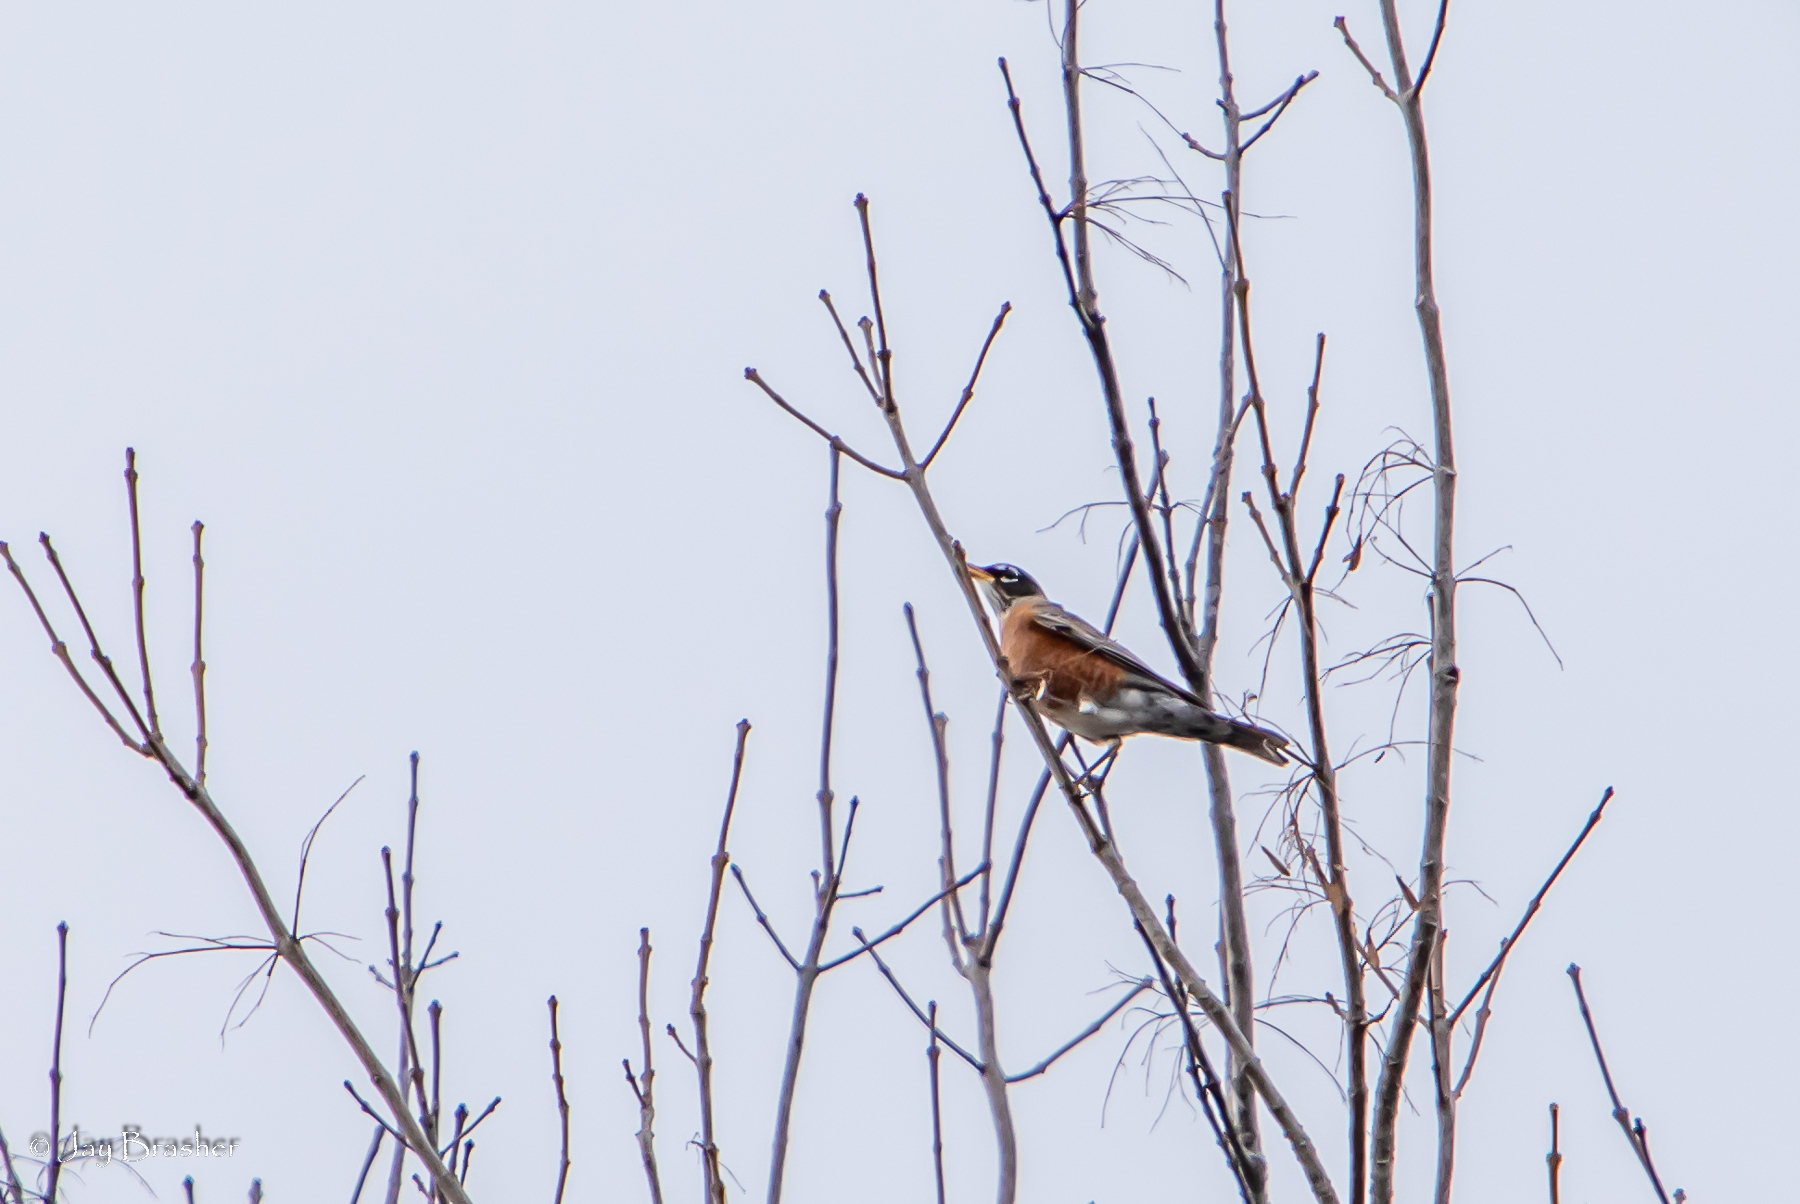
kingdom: Animalia
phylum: Chordata
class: Aves
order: Passeriformes
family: Turdidae
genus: Turdus
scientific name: Turdus migratorius
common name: American robin
